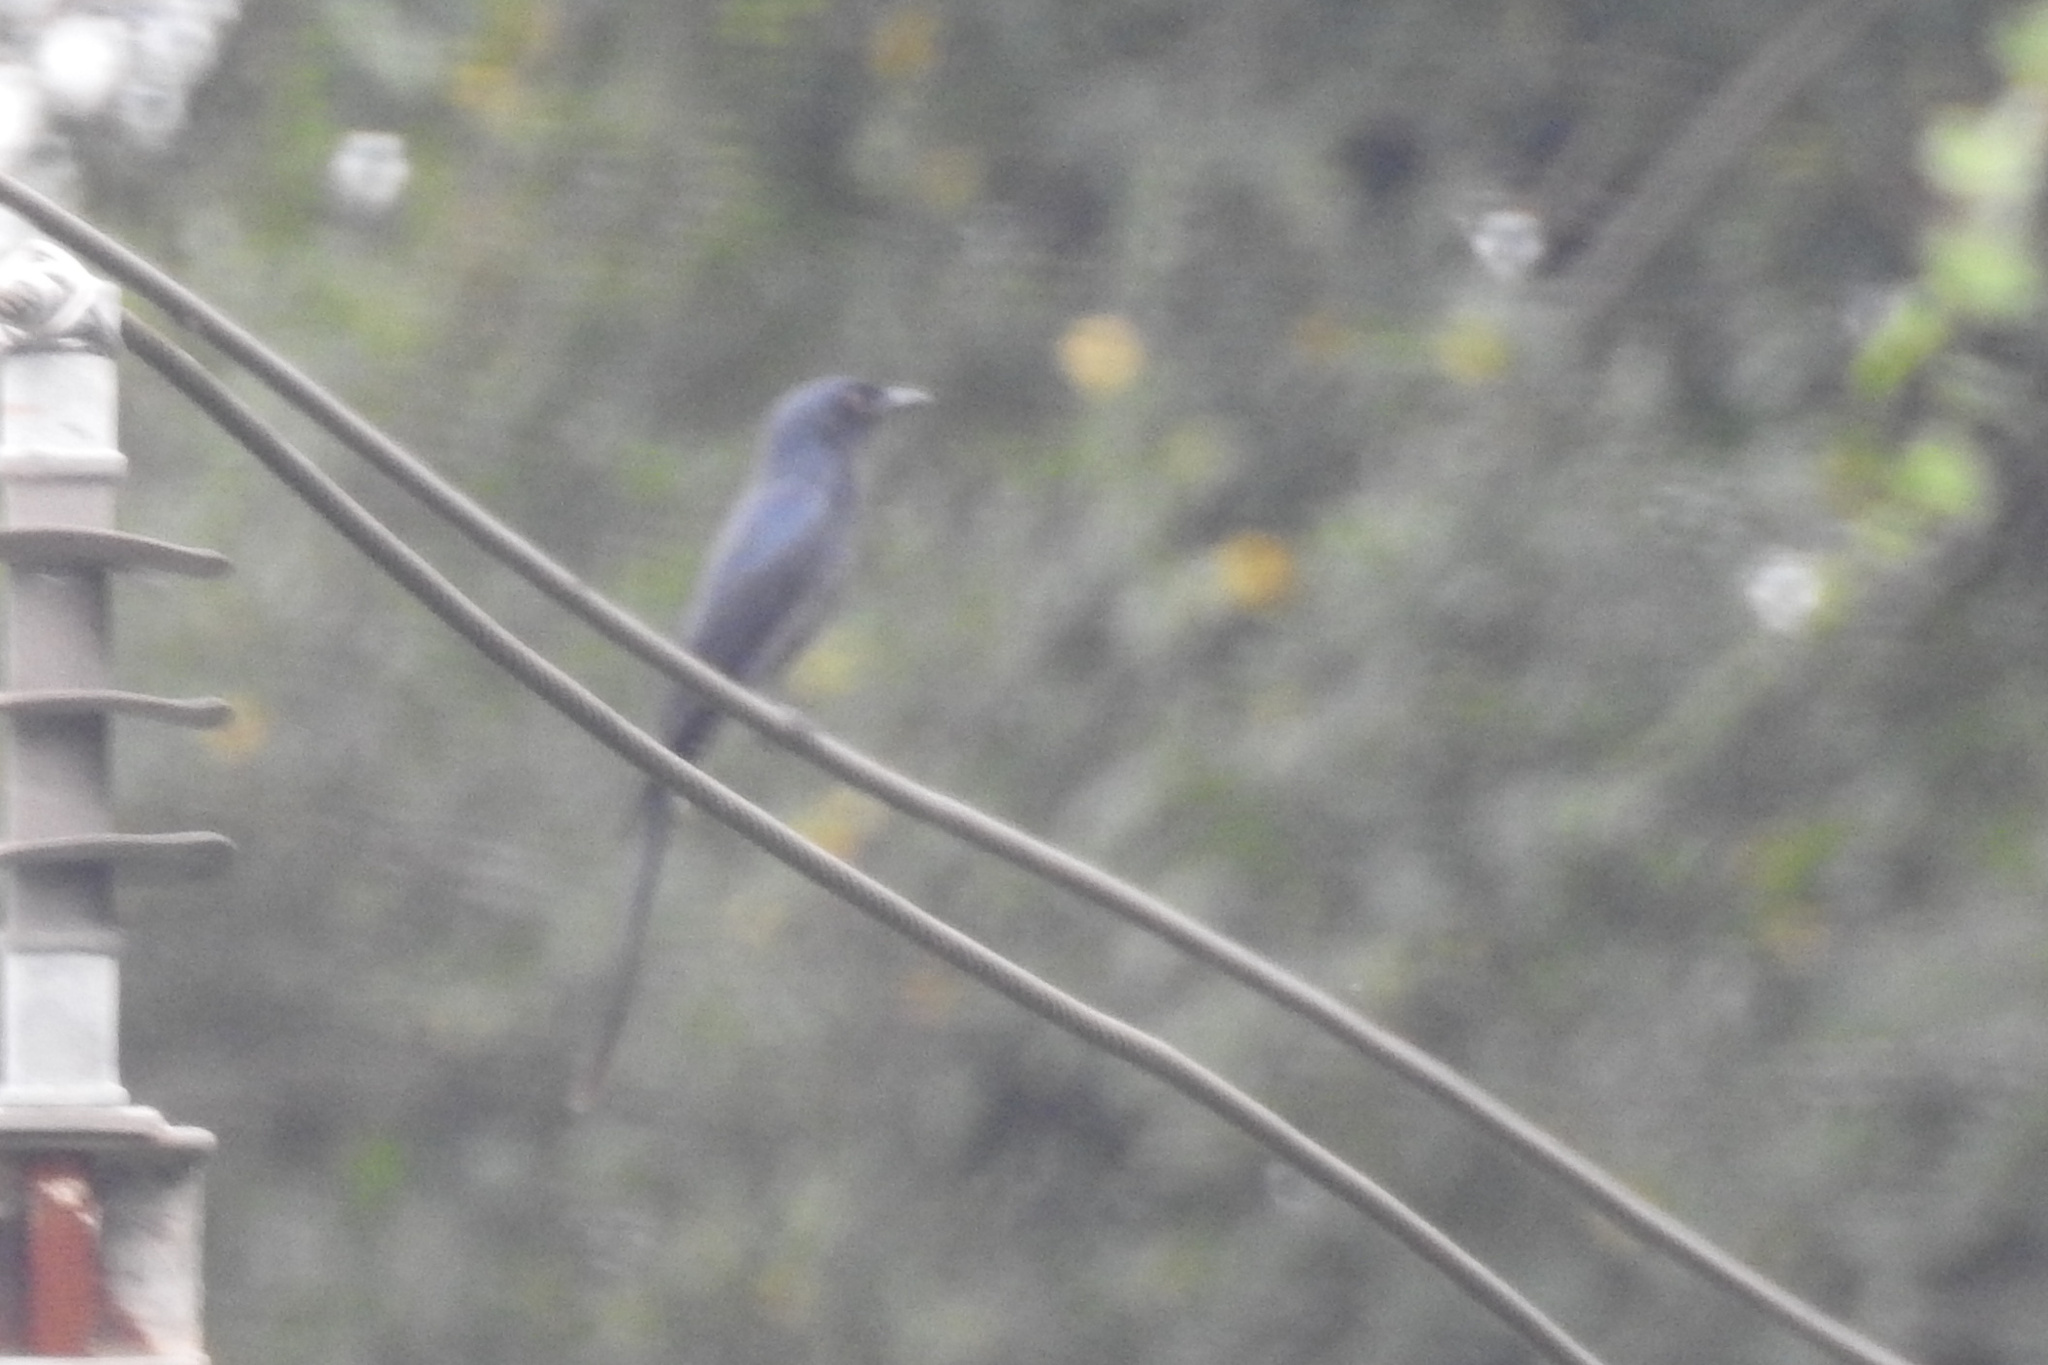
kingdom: Animalia
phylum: Chordata
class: Aves
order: Passeriformes
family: Dicruridae
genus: Dicrurus
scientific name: Dicrurus leucophaeus
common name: Ashy drongo
